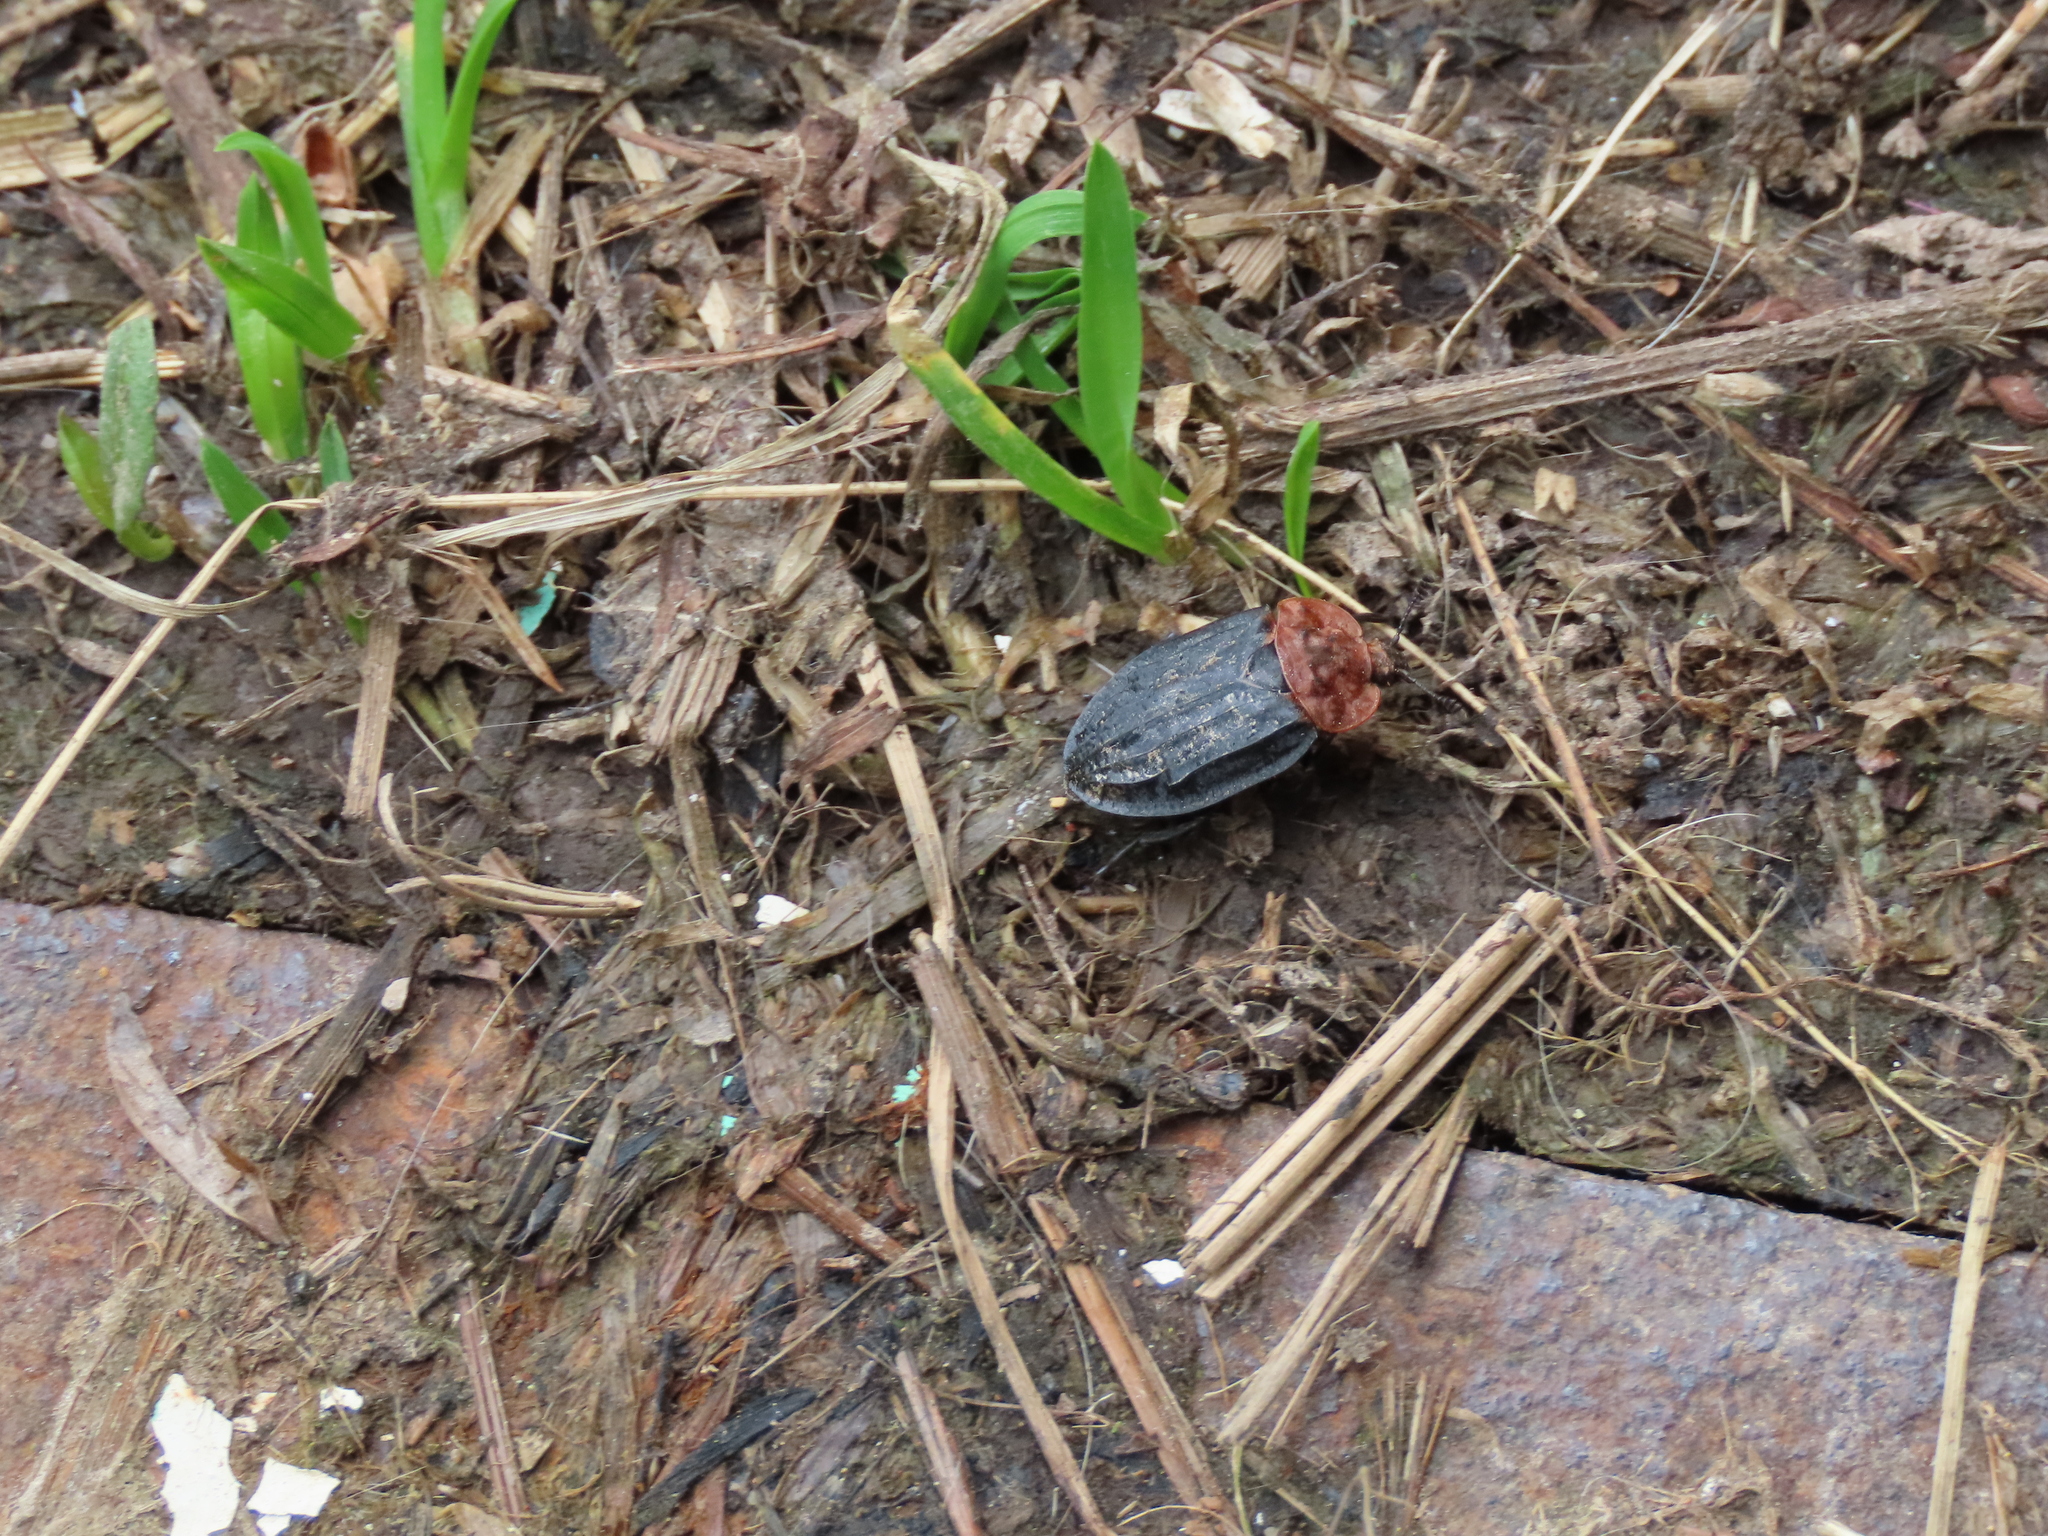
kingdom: Animalia
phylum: Arthropoda
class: Insecta
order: Coleoptera
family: Staphylinidae
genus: Oiceoptoma
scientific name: Oiceoptoma thoracicum
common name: Red-breasted carrion beetle
